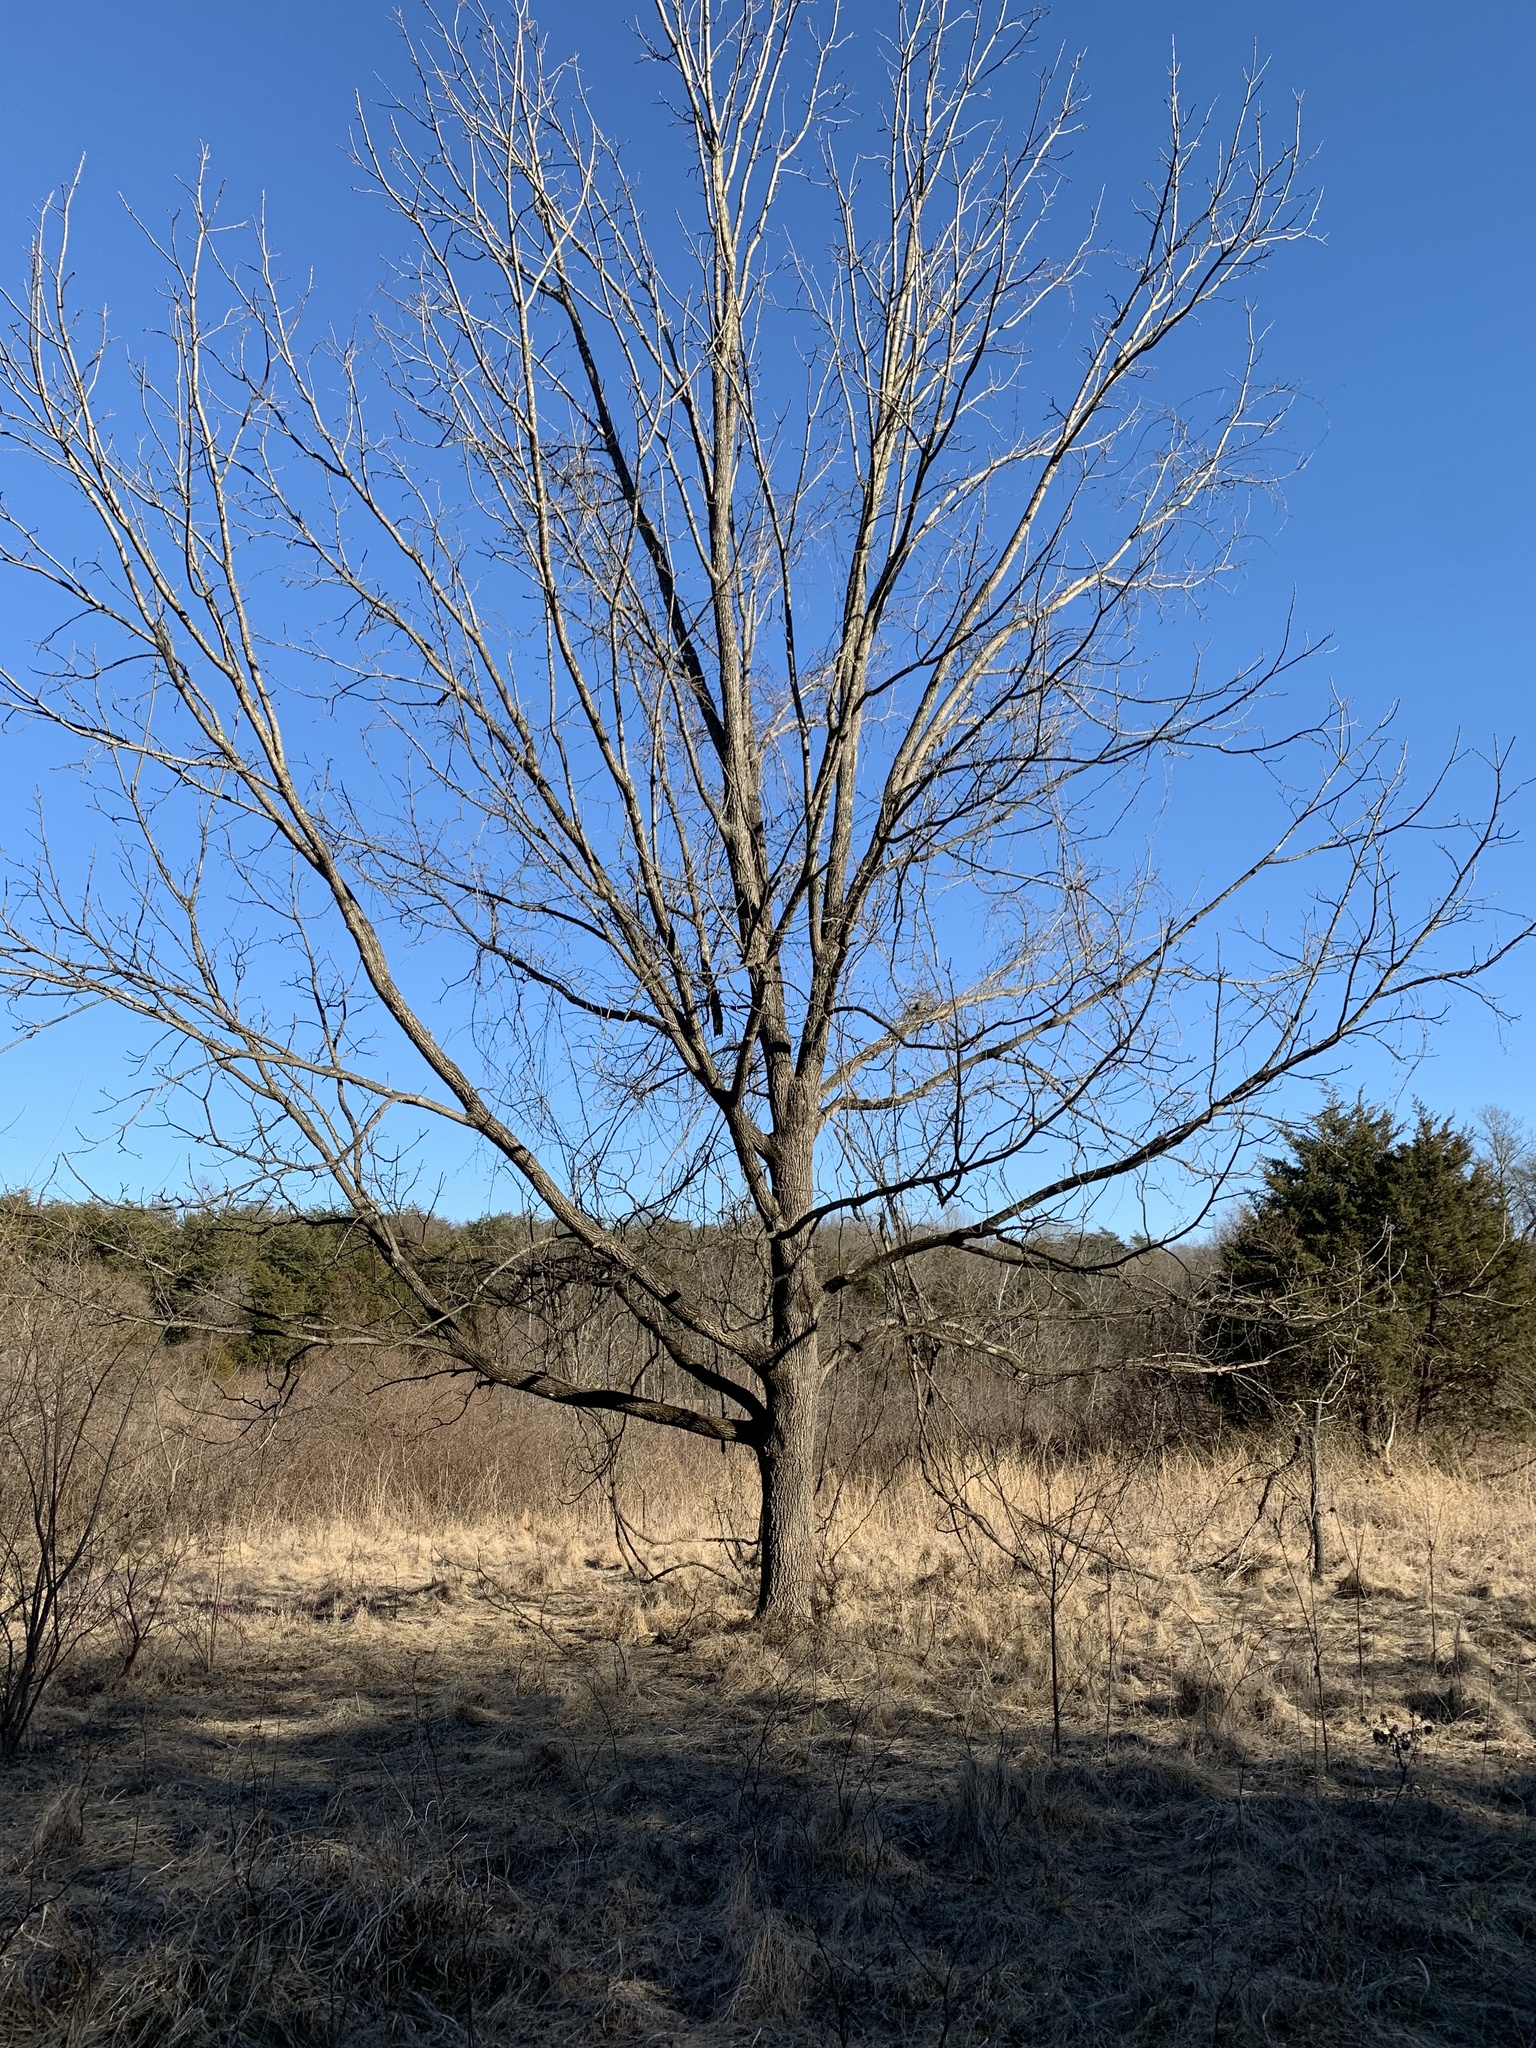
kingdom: Plantae
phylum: Tracheophyta
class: Magnoliopsida
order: Fagales
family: Juglandaceae
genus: Juglans
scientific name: Juglans nigra
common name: Black walnut
